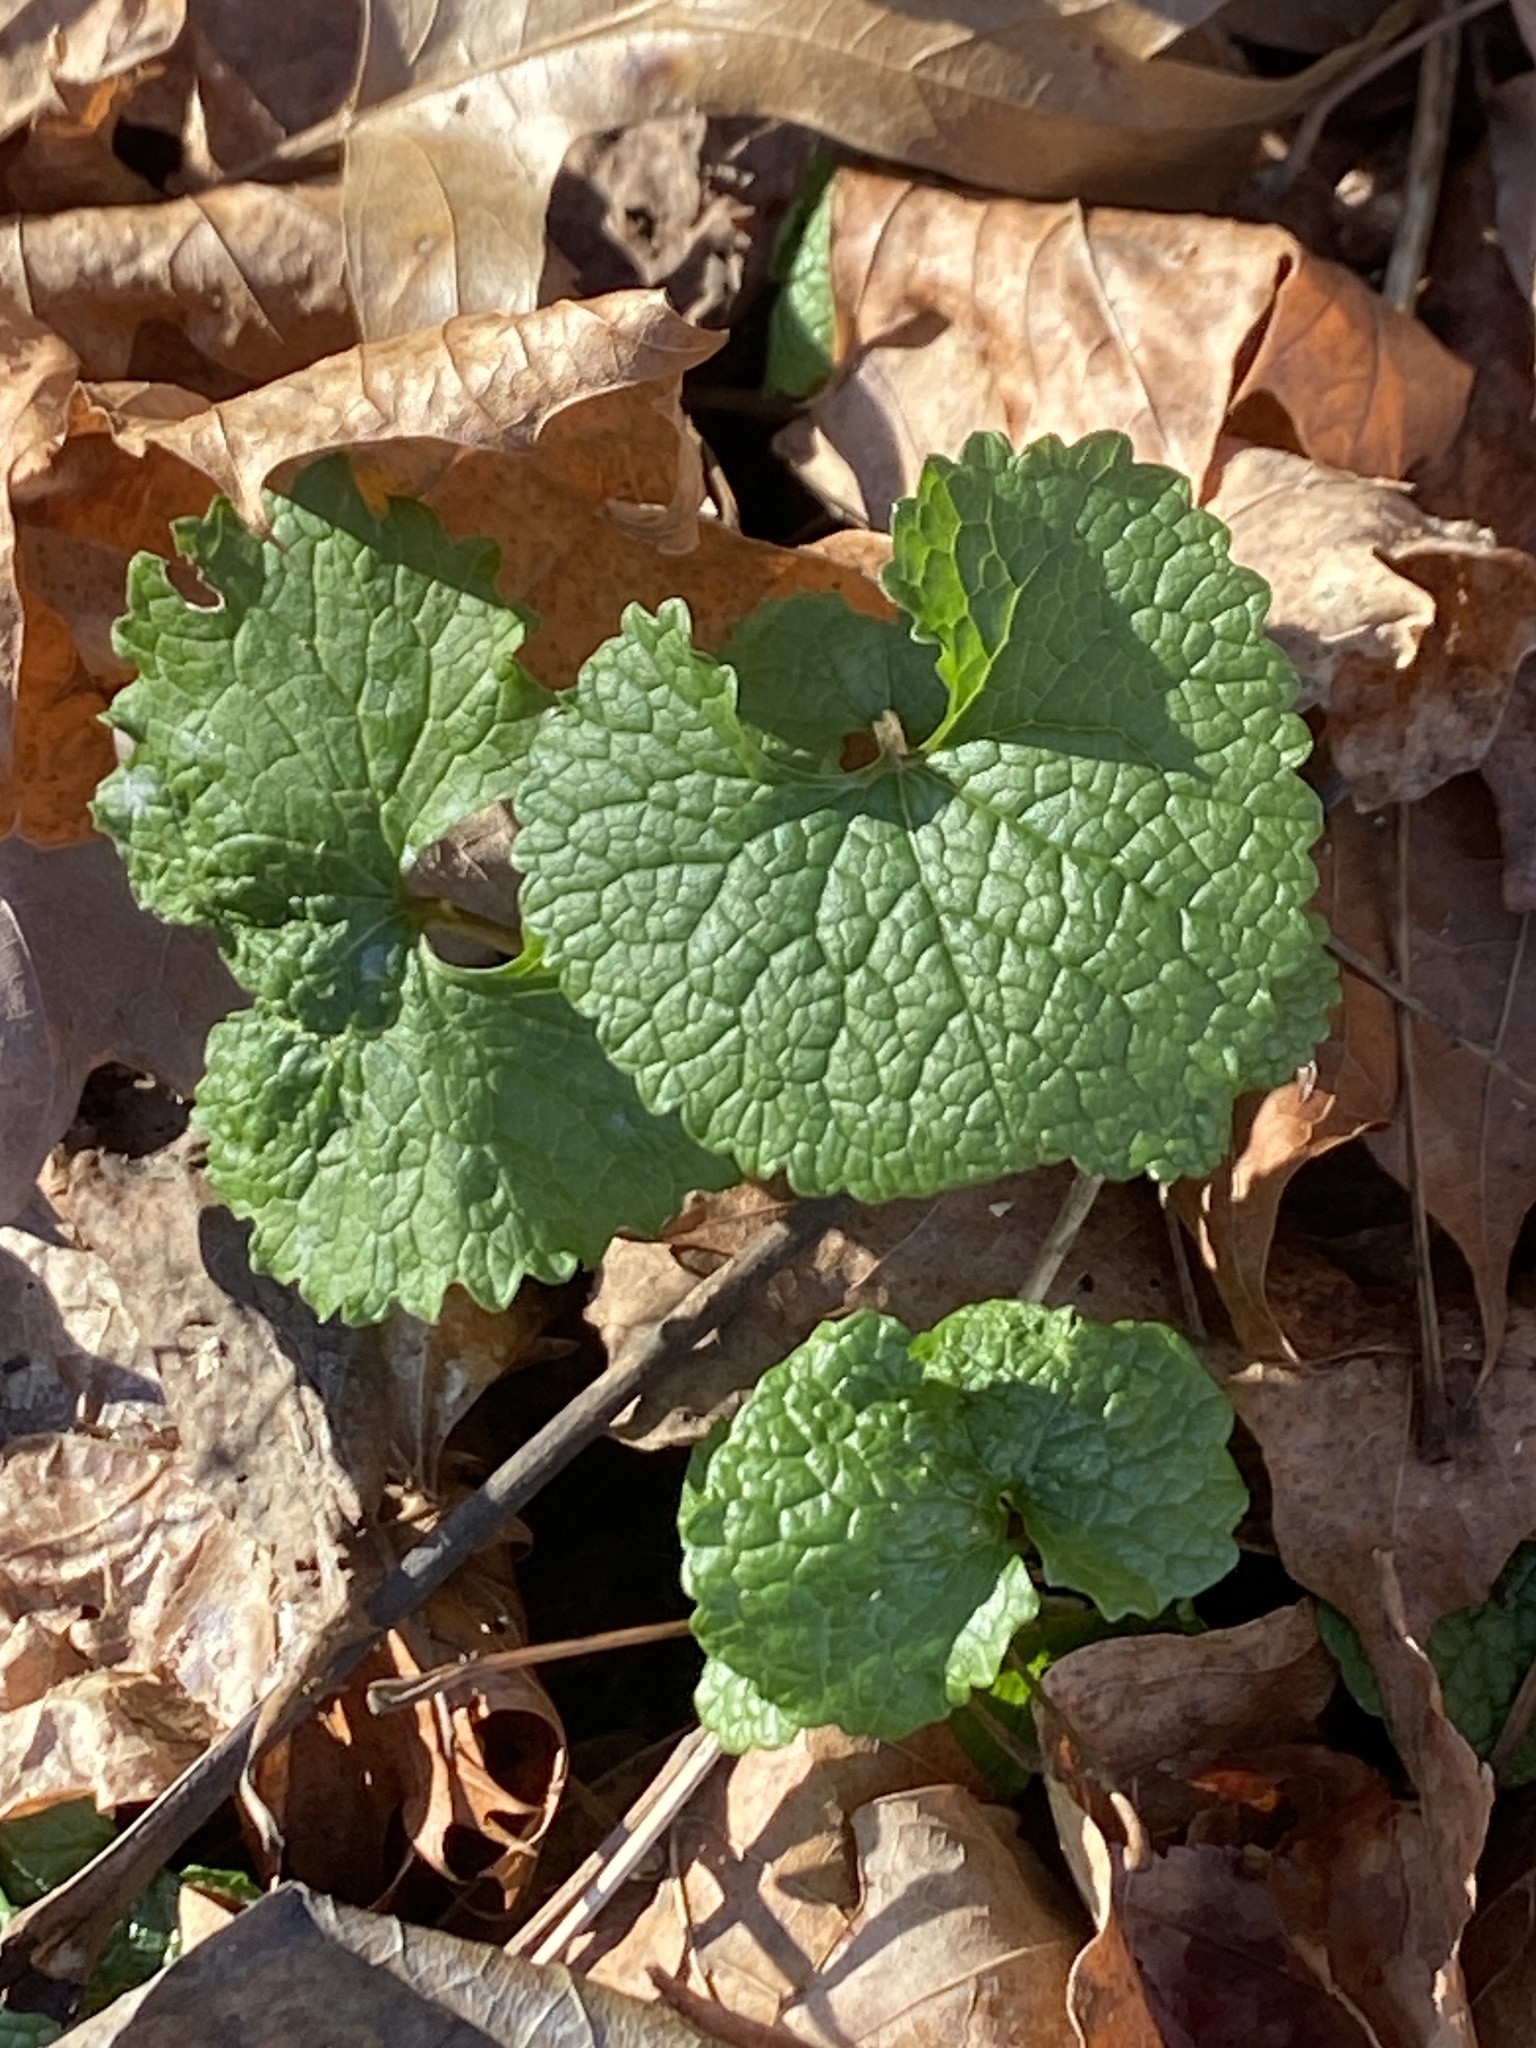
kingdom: Plantae
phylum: Tracheophyta
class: Magnoliopsida
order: Brassicales
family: Brassicaceae
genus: Alliaria
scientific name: Alliaria petiolata
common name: Garlic mustard
